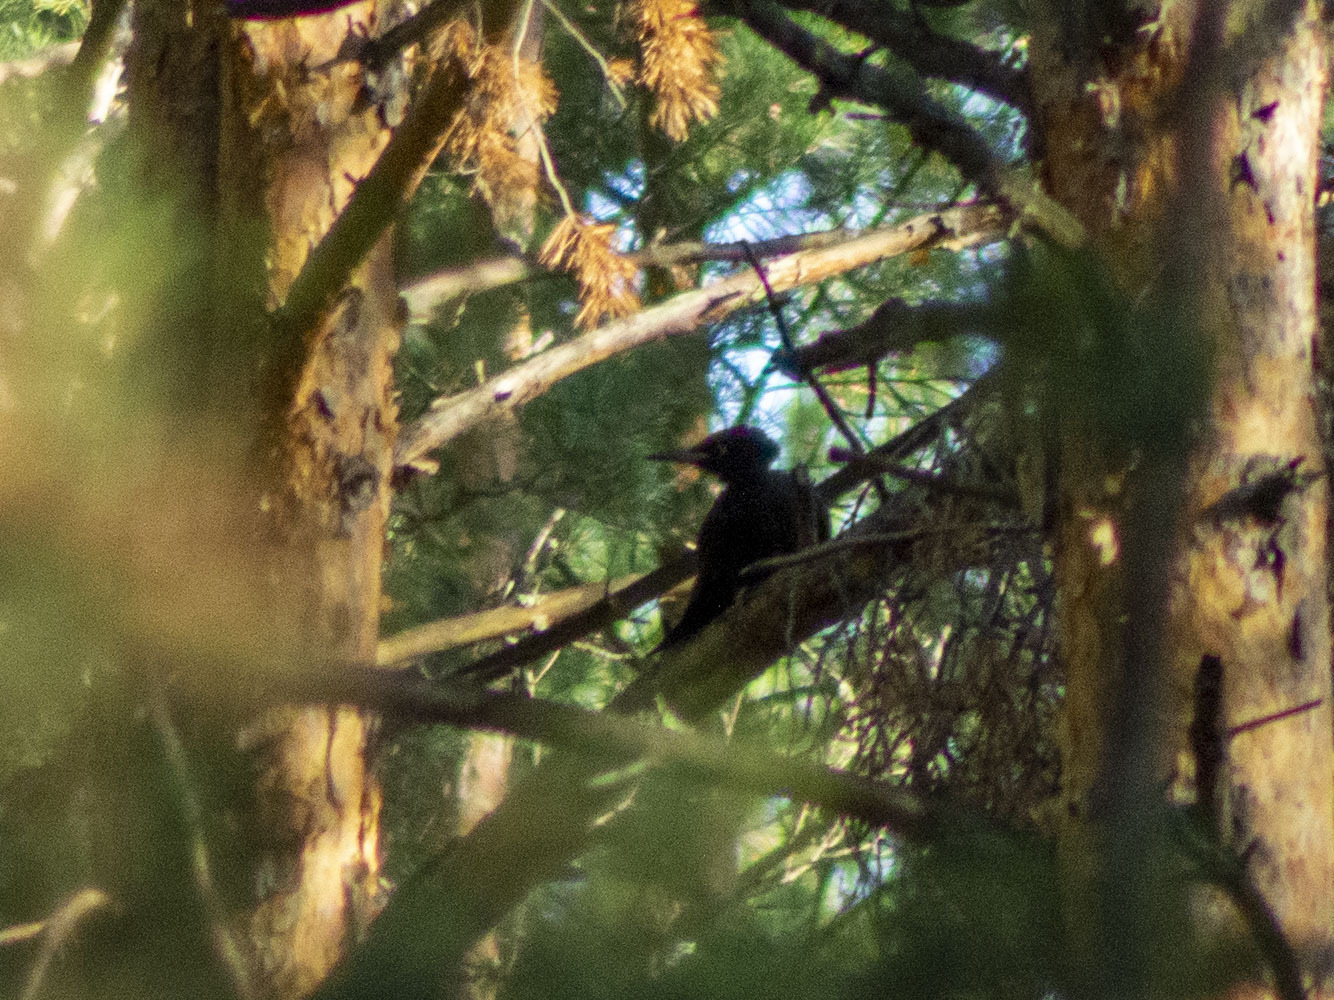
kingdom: Animalia
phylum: Chordata
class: Aves
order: Piciformes
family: Picidae
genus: Dryocopus
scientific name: Dryocopus martius
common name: Black woodpecker
